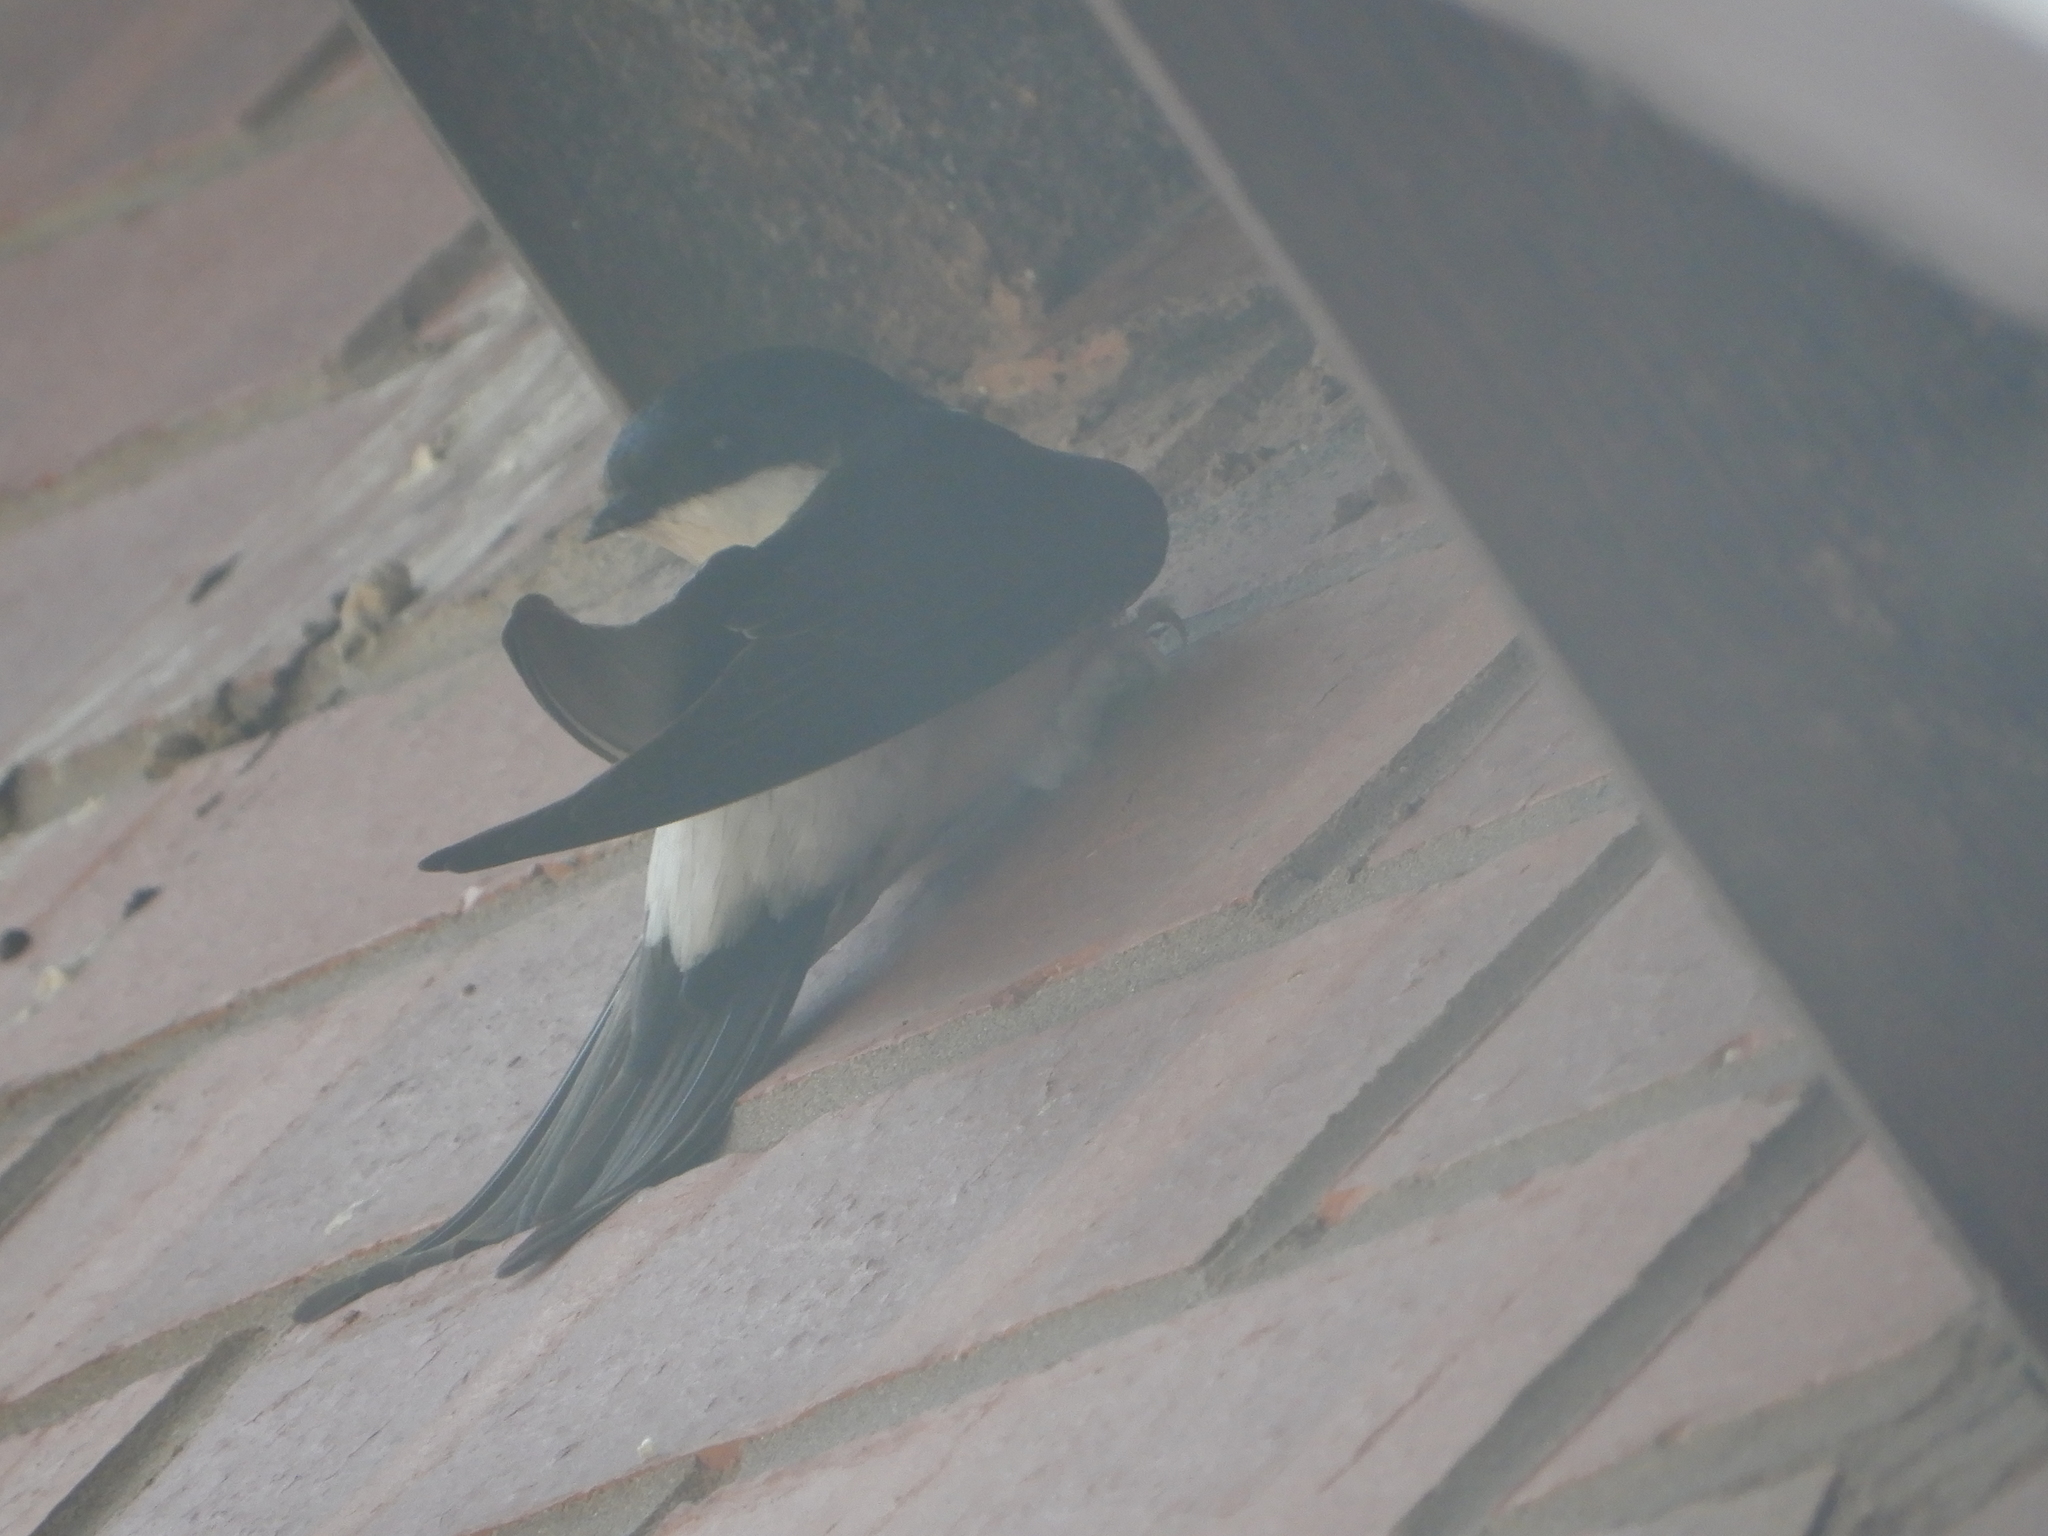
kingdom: Animalia
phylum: Chordata
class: Aves
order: Passeriformes
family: Hirundinidae
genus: Delichon
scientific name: Delichon urbicum
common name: Common house martin
